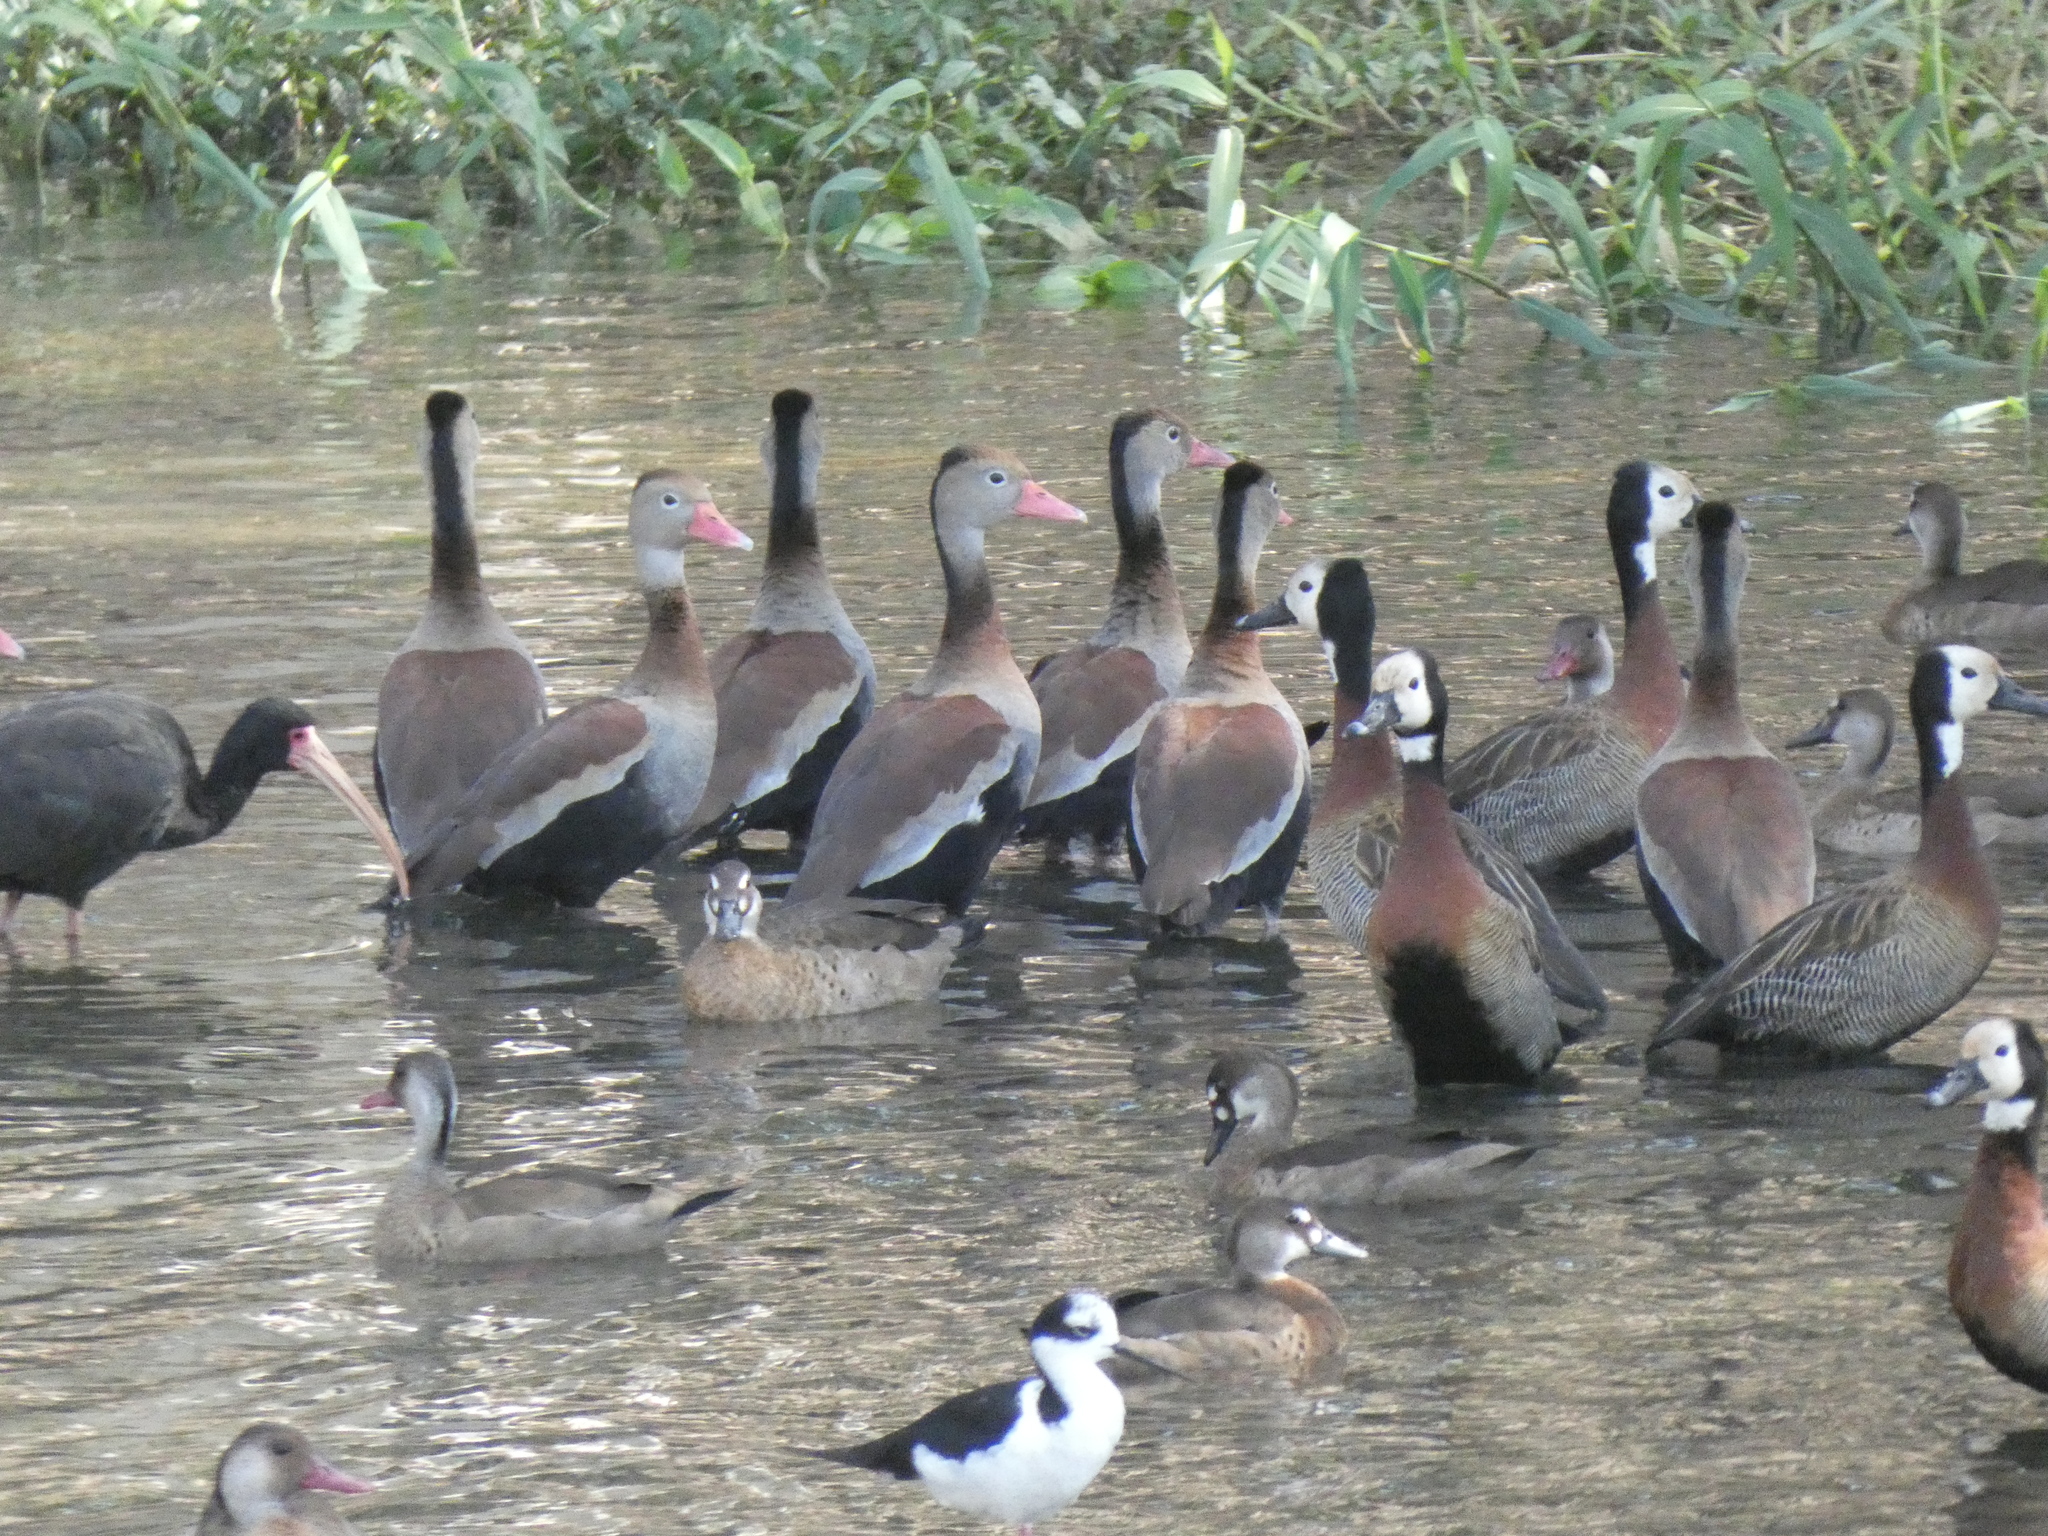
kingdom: Animalia
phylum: Chordata
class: Aves
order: Anseriformes
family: Anatidae
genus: Dendrocygna
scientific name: Dendrocygna autumnalis
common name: Black-bellied whistling duck
